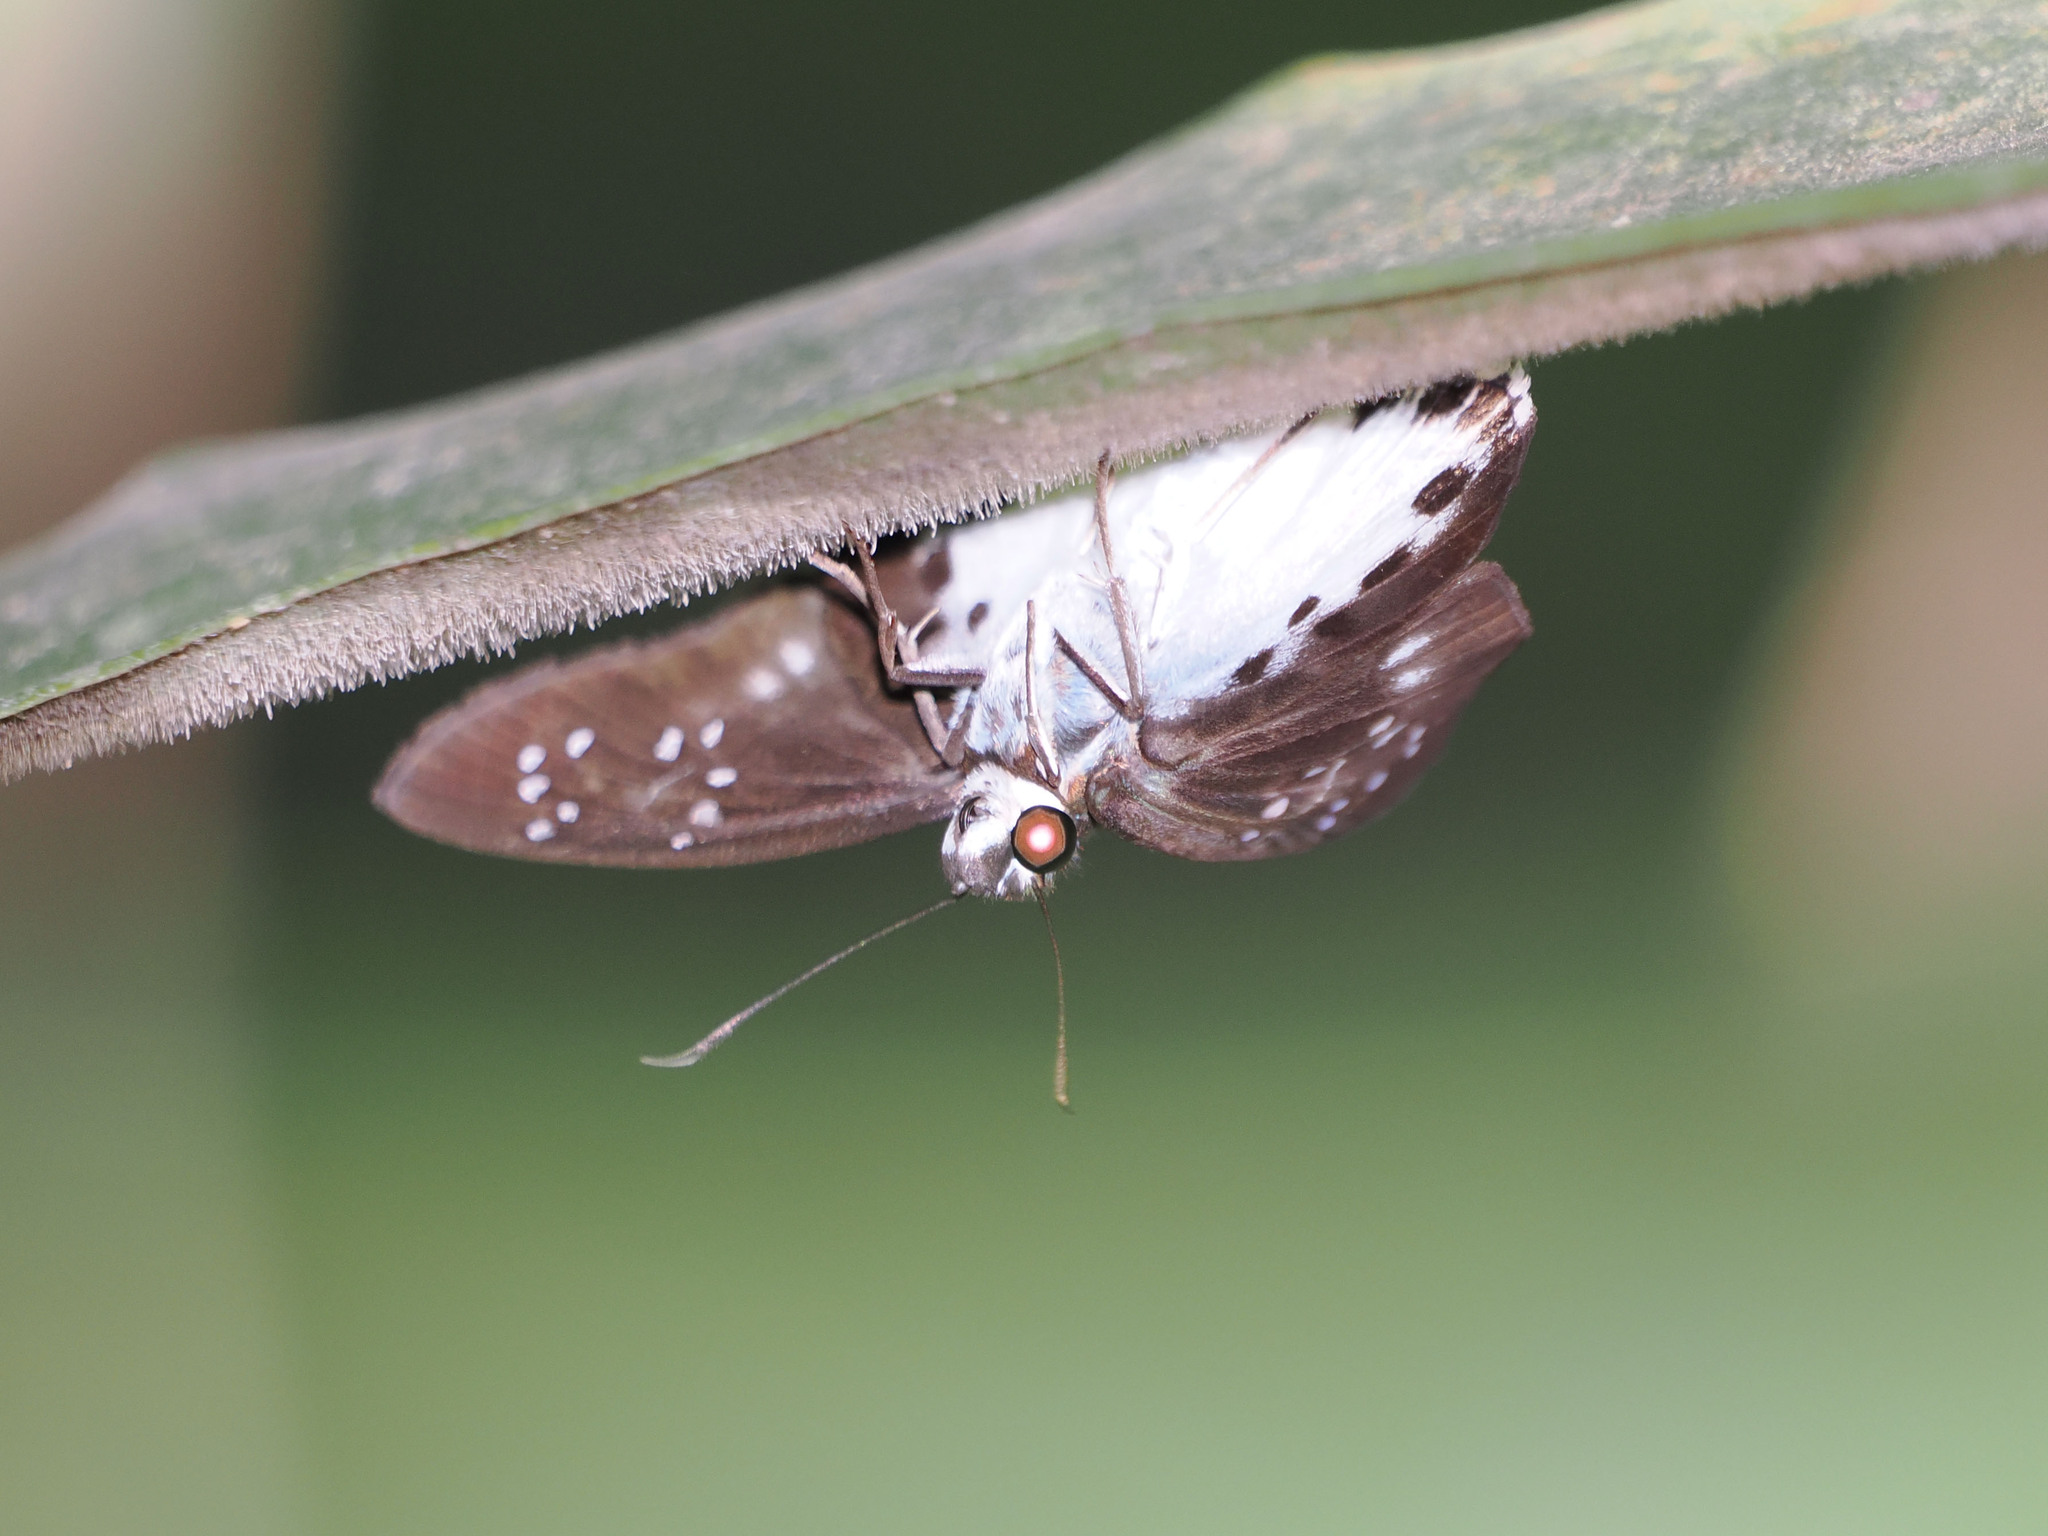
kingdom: Animalia
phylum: Arthropoda
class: Insecta
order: Lepidoptera
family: Hesperiidae
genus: Tagiades
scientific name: Tagiades trebellius
